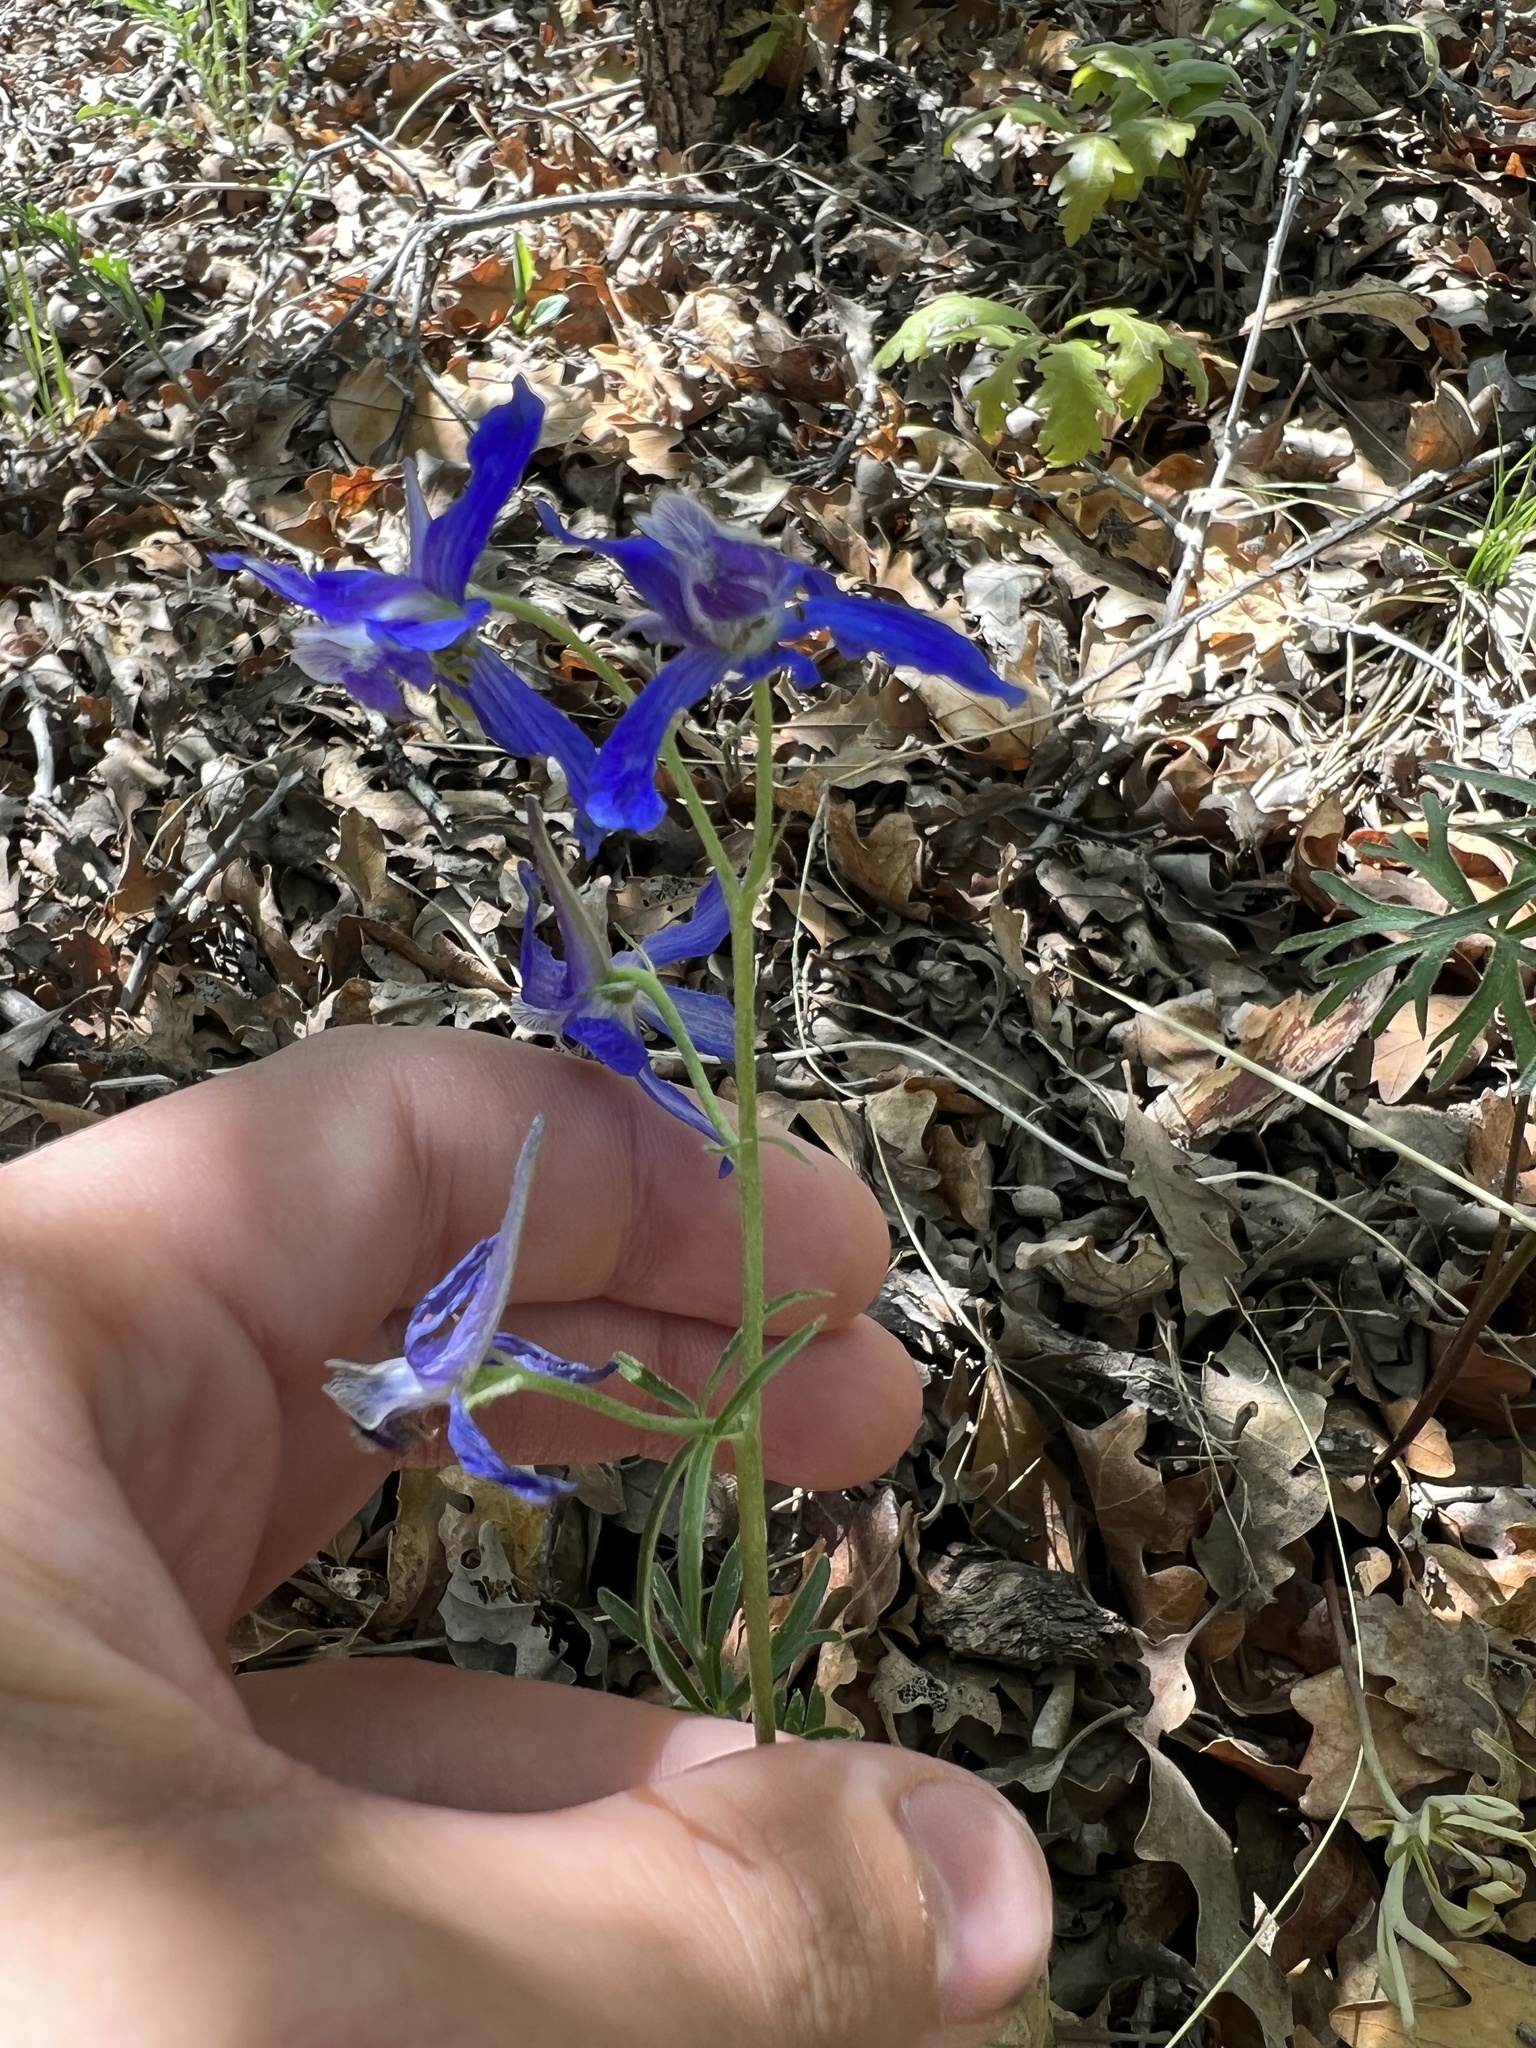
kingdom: Plantae
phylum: Tracheophyta
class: Magnoliopsida
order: Ranunculales
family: Ranunculaceae
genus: Delphinium
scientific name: Delphinium nuttallianum
